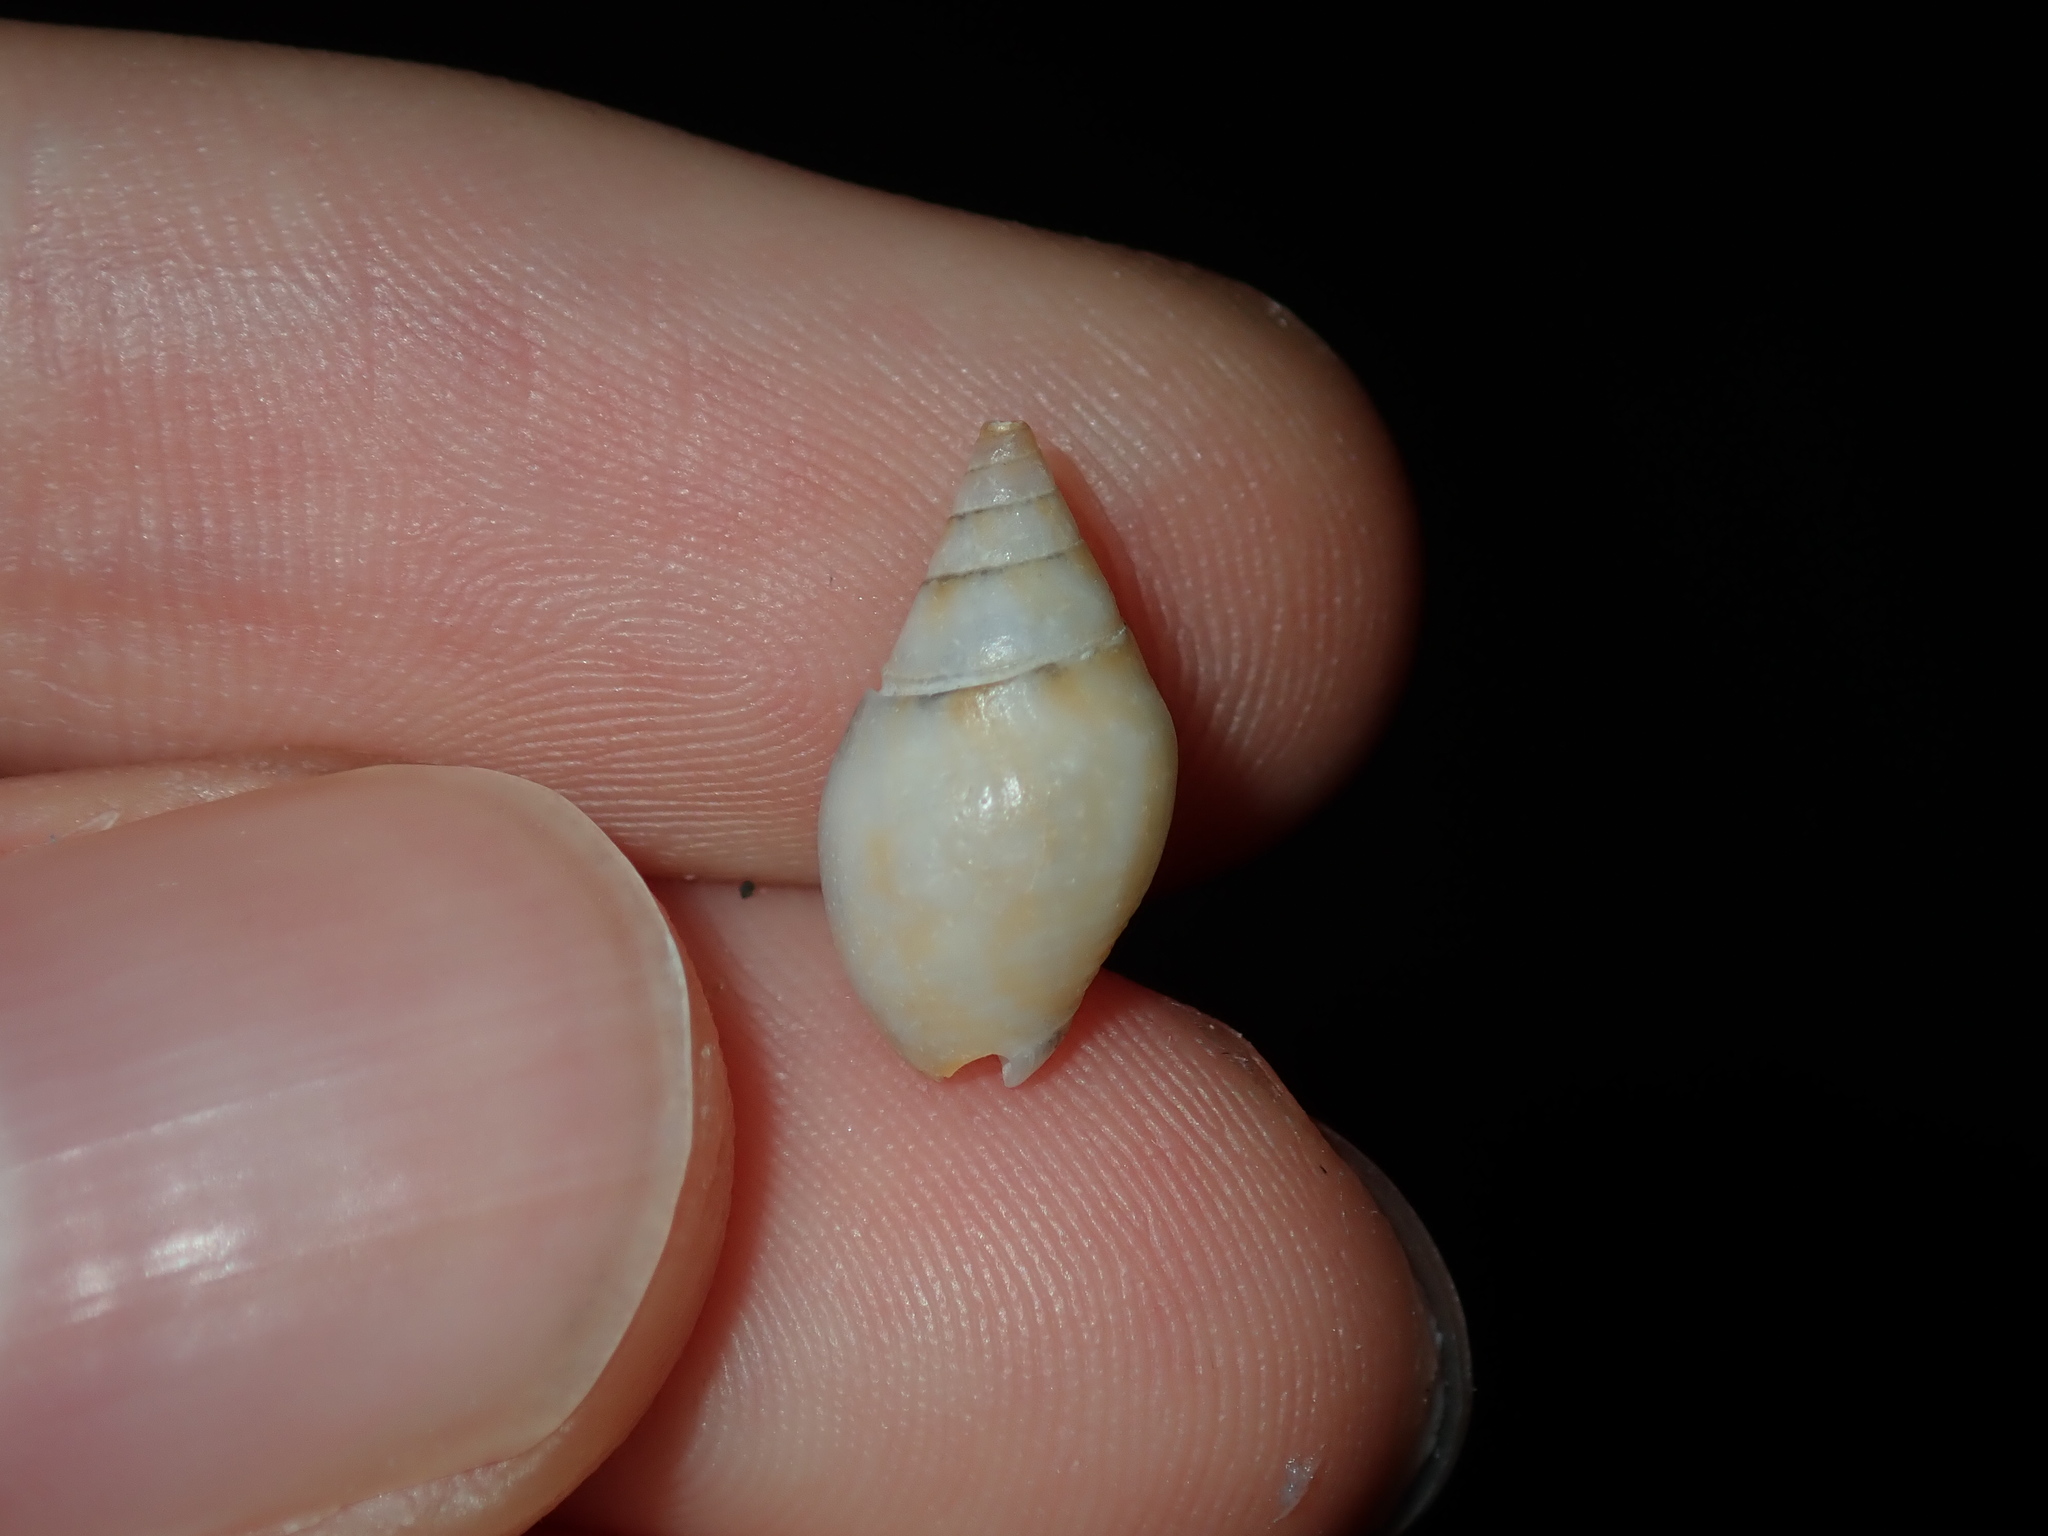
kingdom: Animalia
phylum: Mollusca
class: Gastropoda
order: Neogastropoda
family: Nassariidae
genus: Cyllene
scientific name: Cyllene lactea
